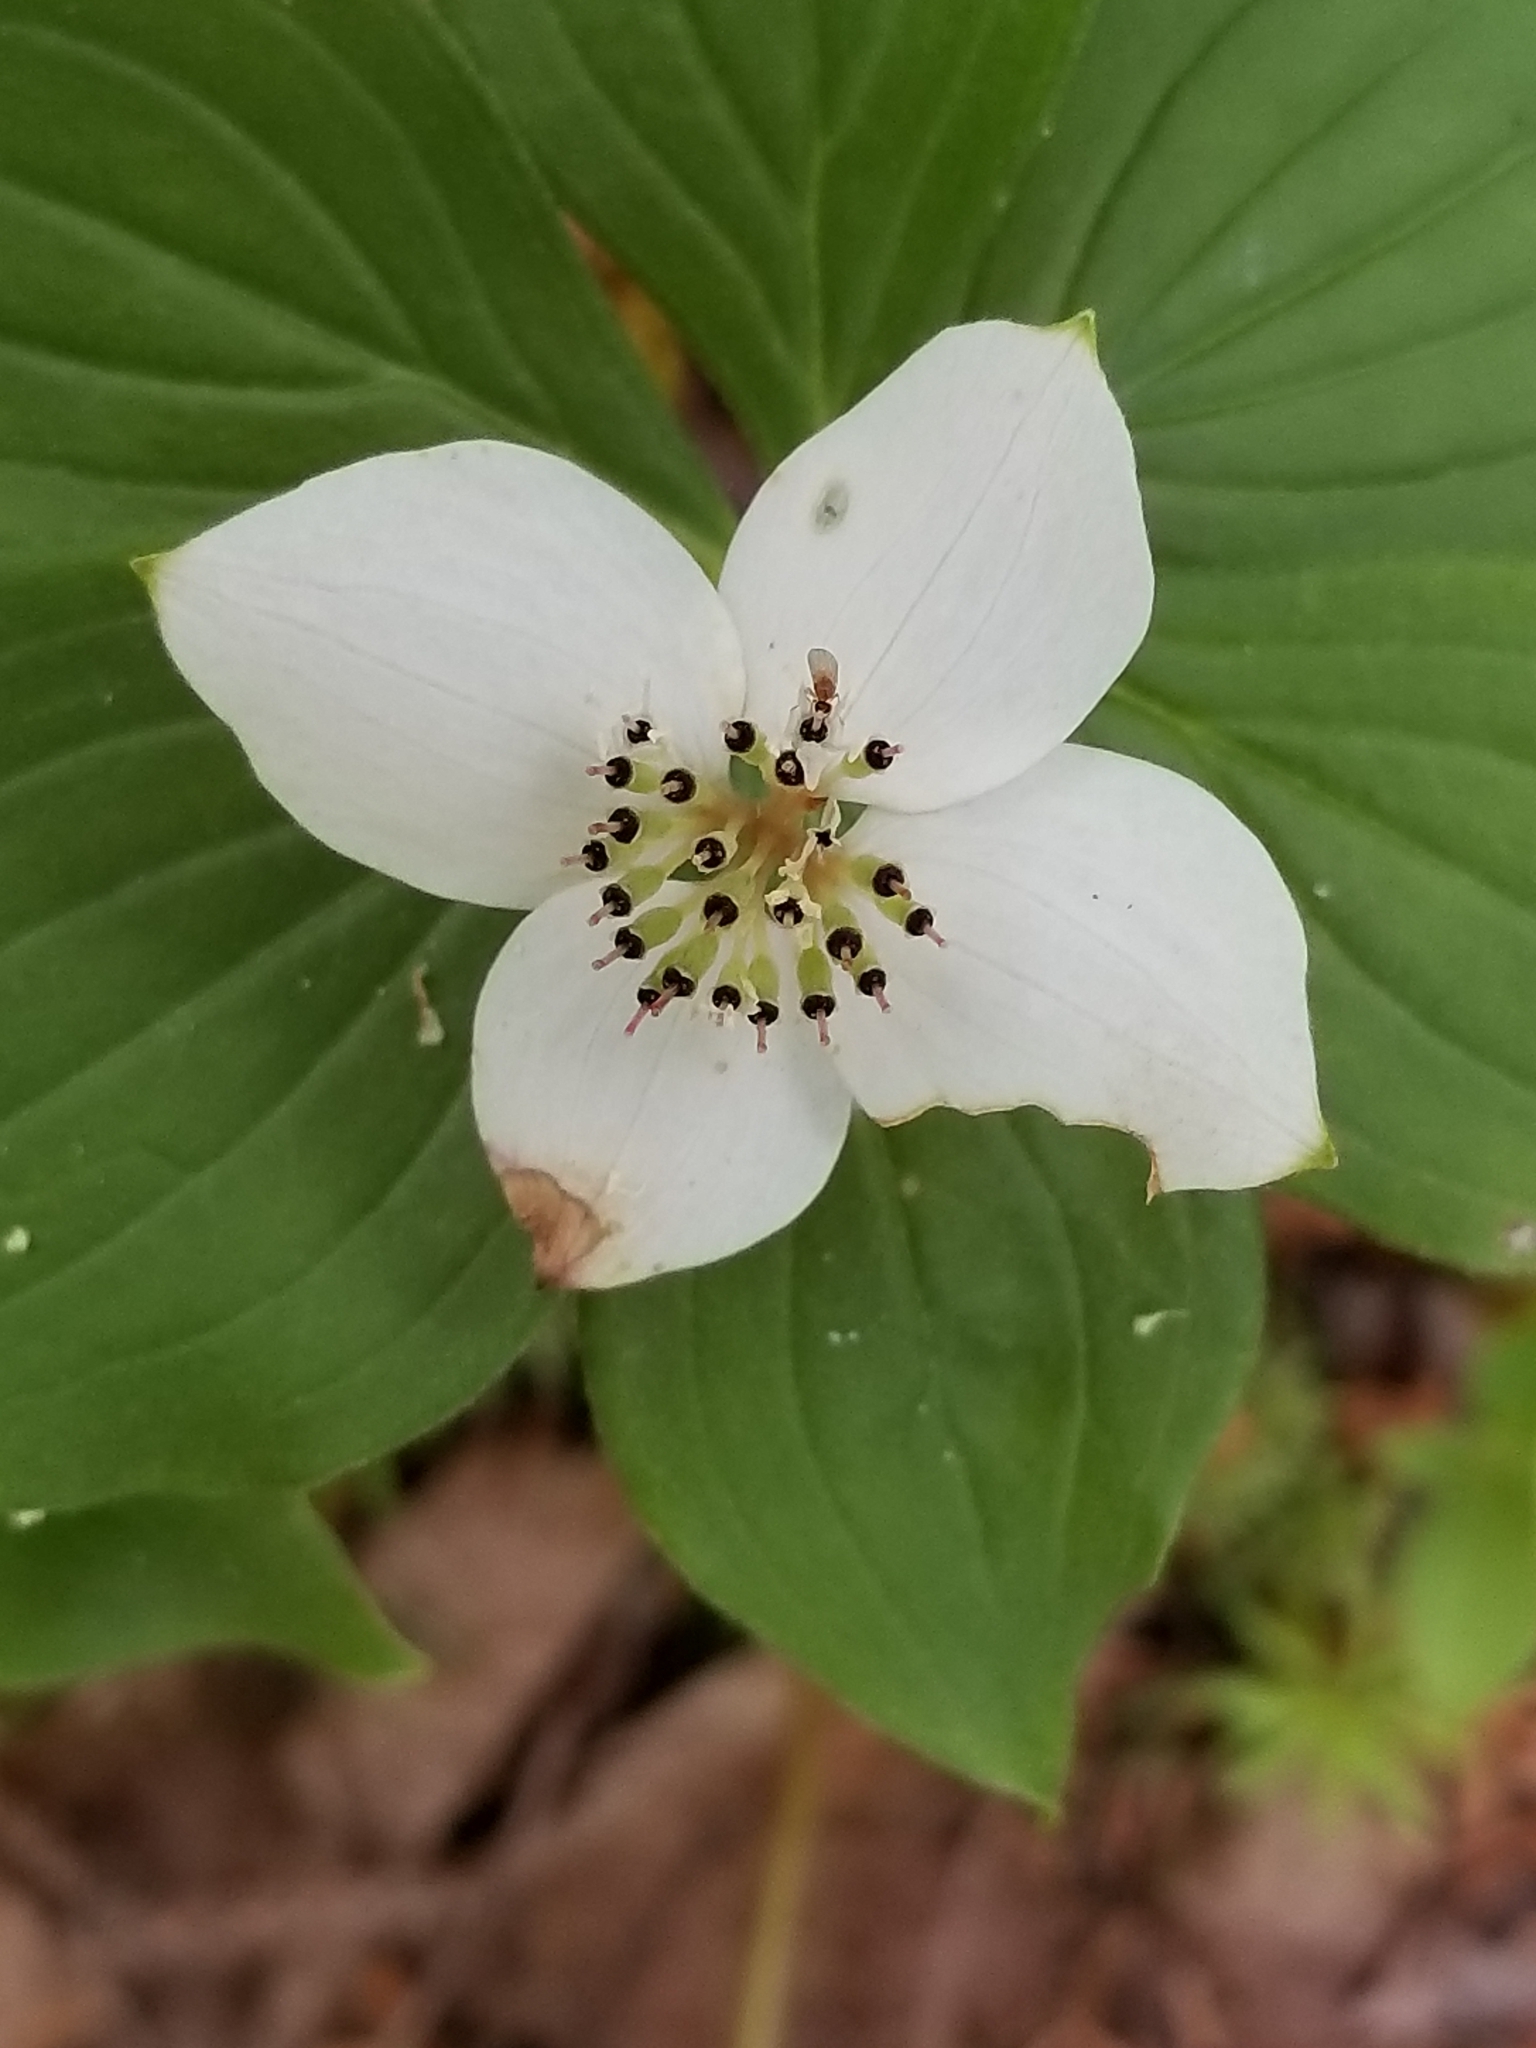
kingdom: Plantae
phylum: Tracheophyta
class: Magnoliopsida
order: Cornales
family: Cornaceae
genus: Cornus
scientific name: Cornus canadensis
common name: Creeping dogwood
